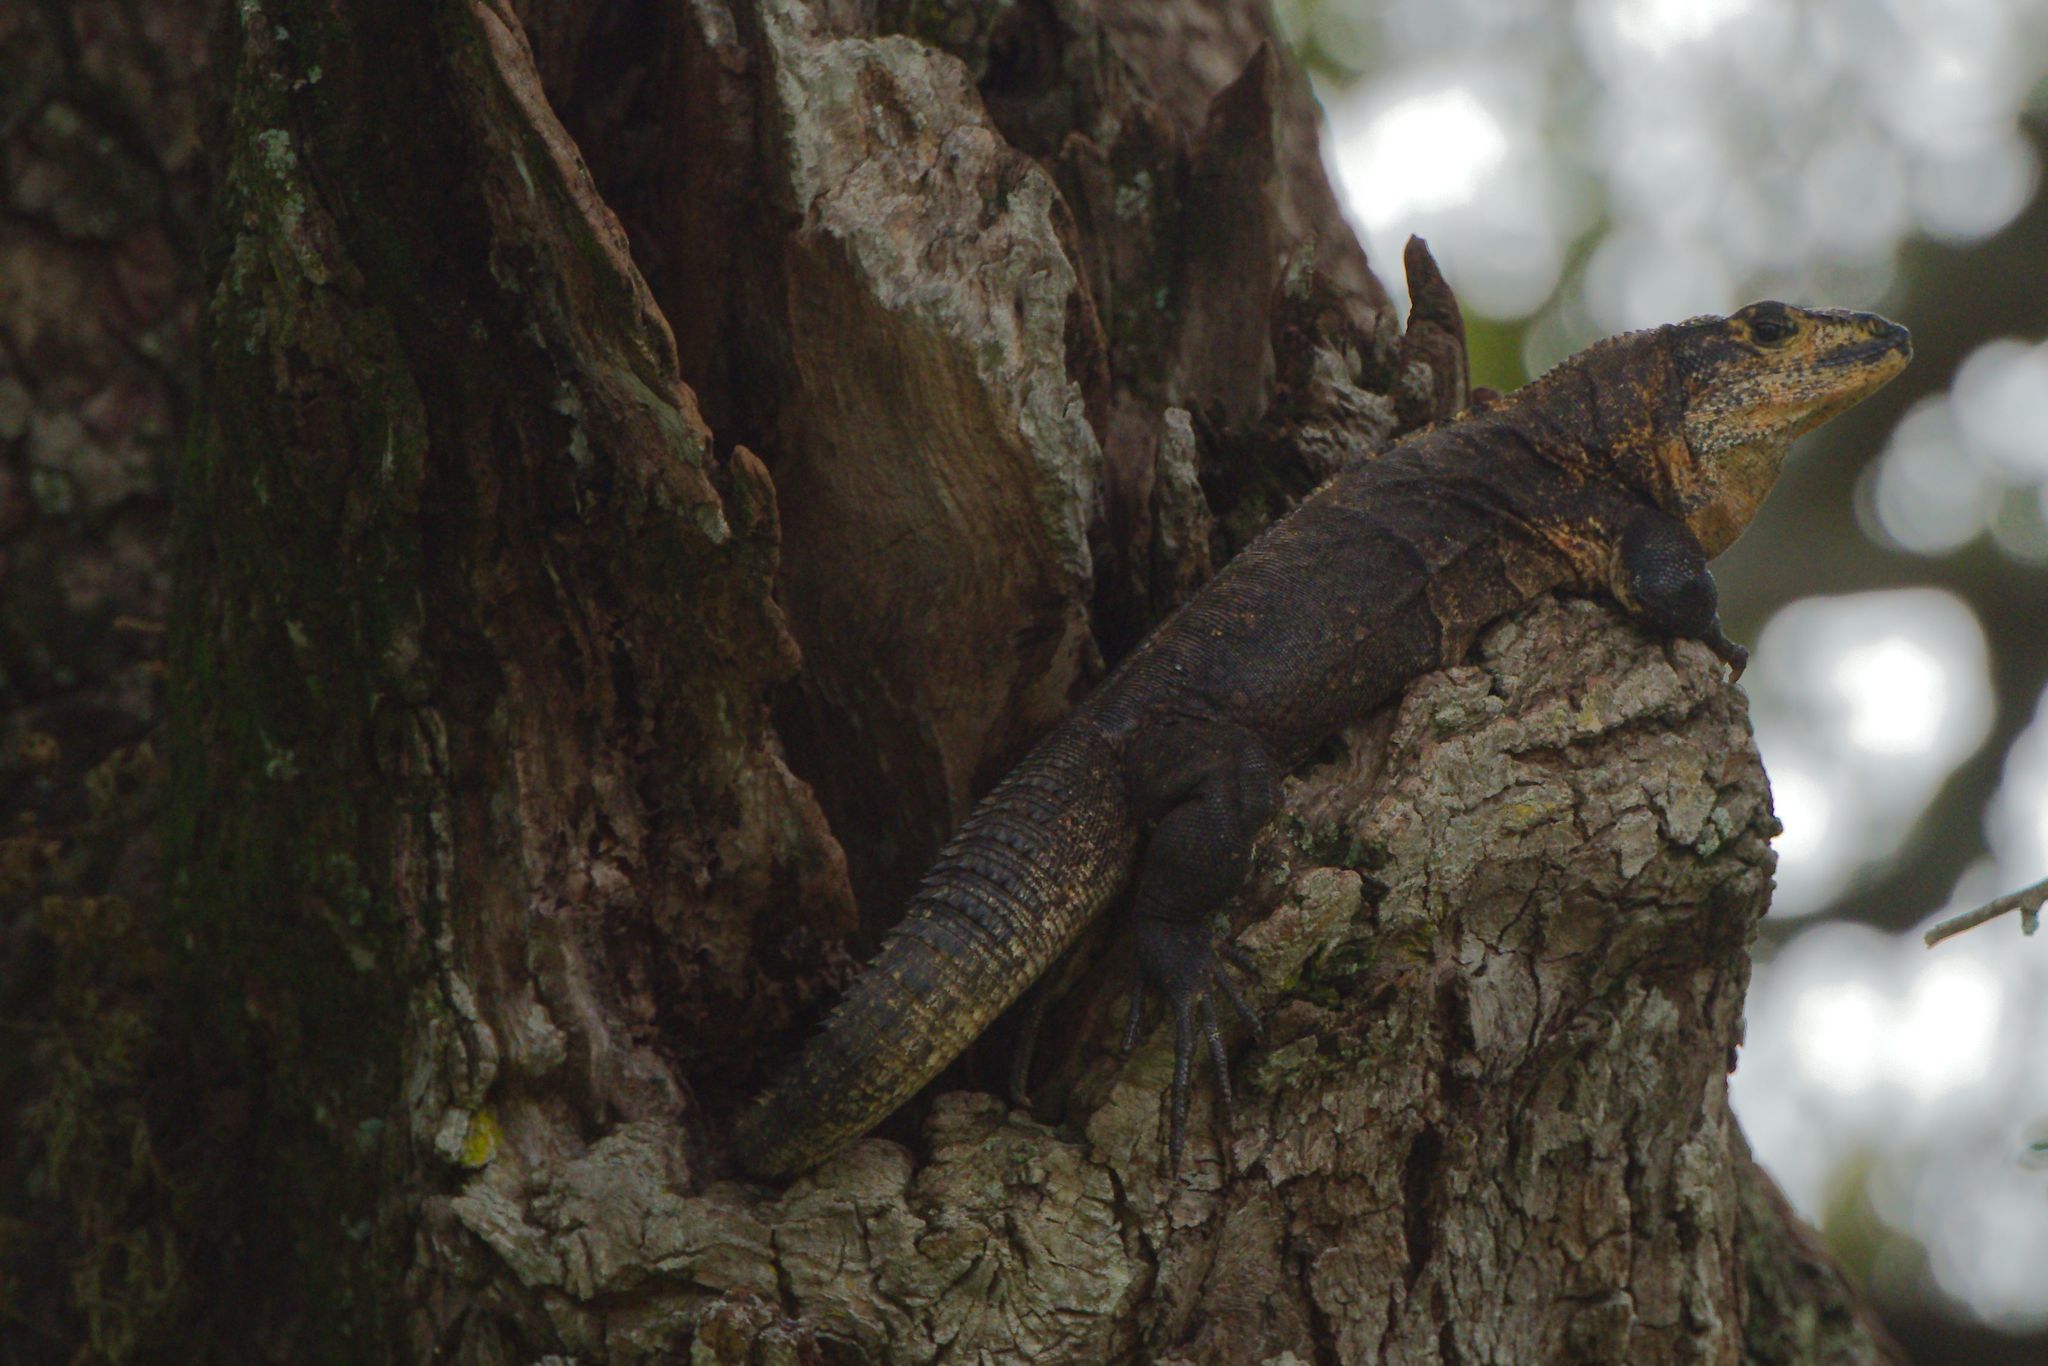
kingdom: Animalia
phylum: Chordata
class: Squamata
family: Iguanidae
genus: Ctenosaura
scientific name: Ctenosaura similis
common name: Black spiny-tailed iguana
